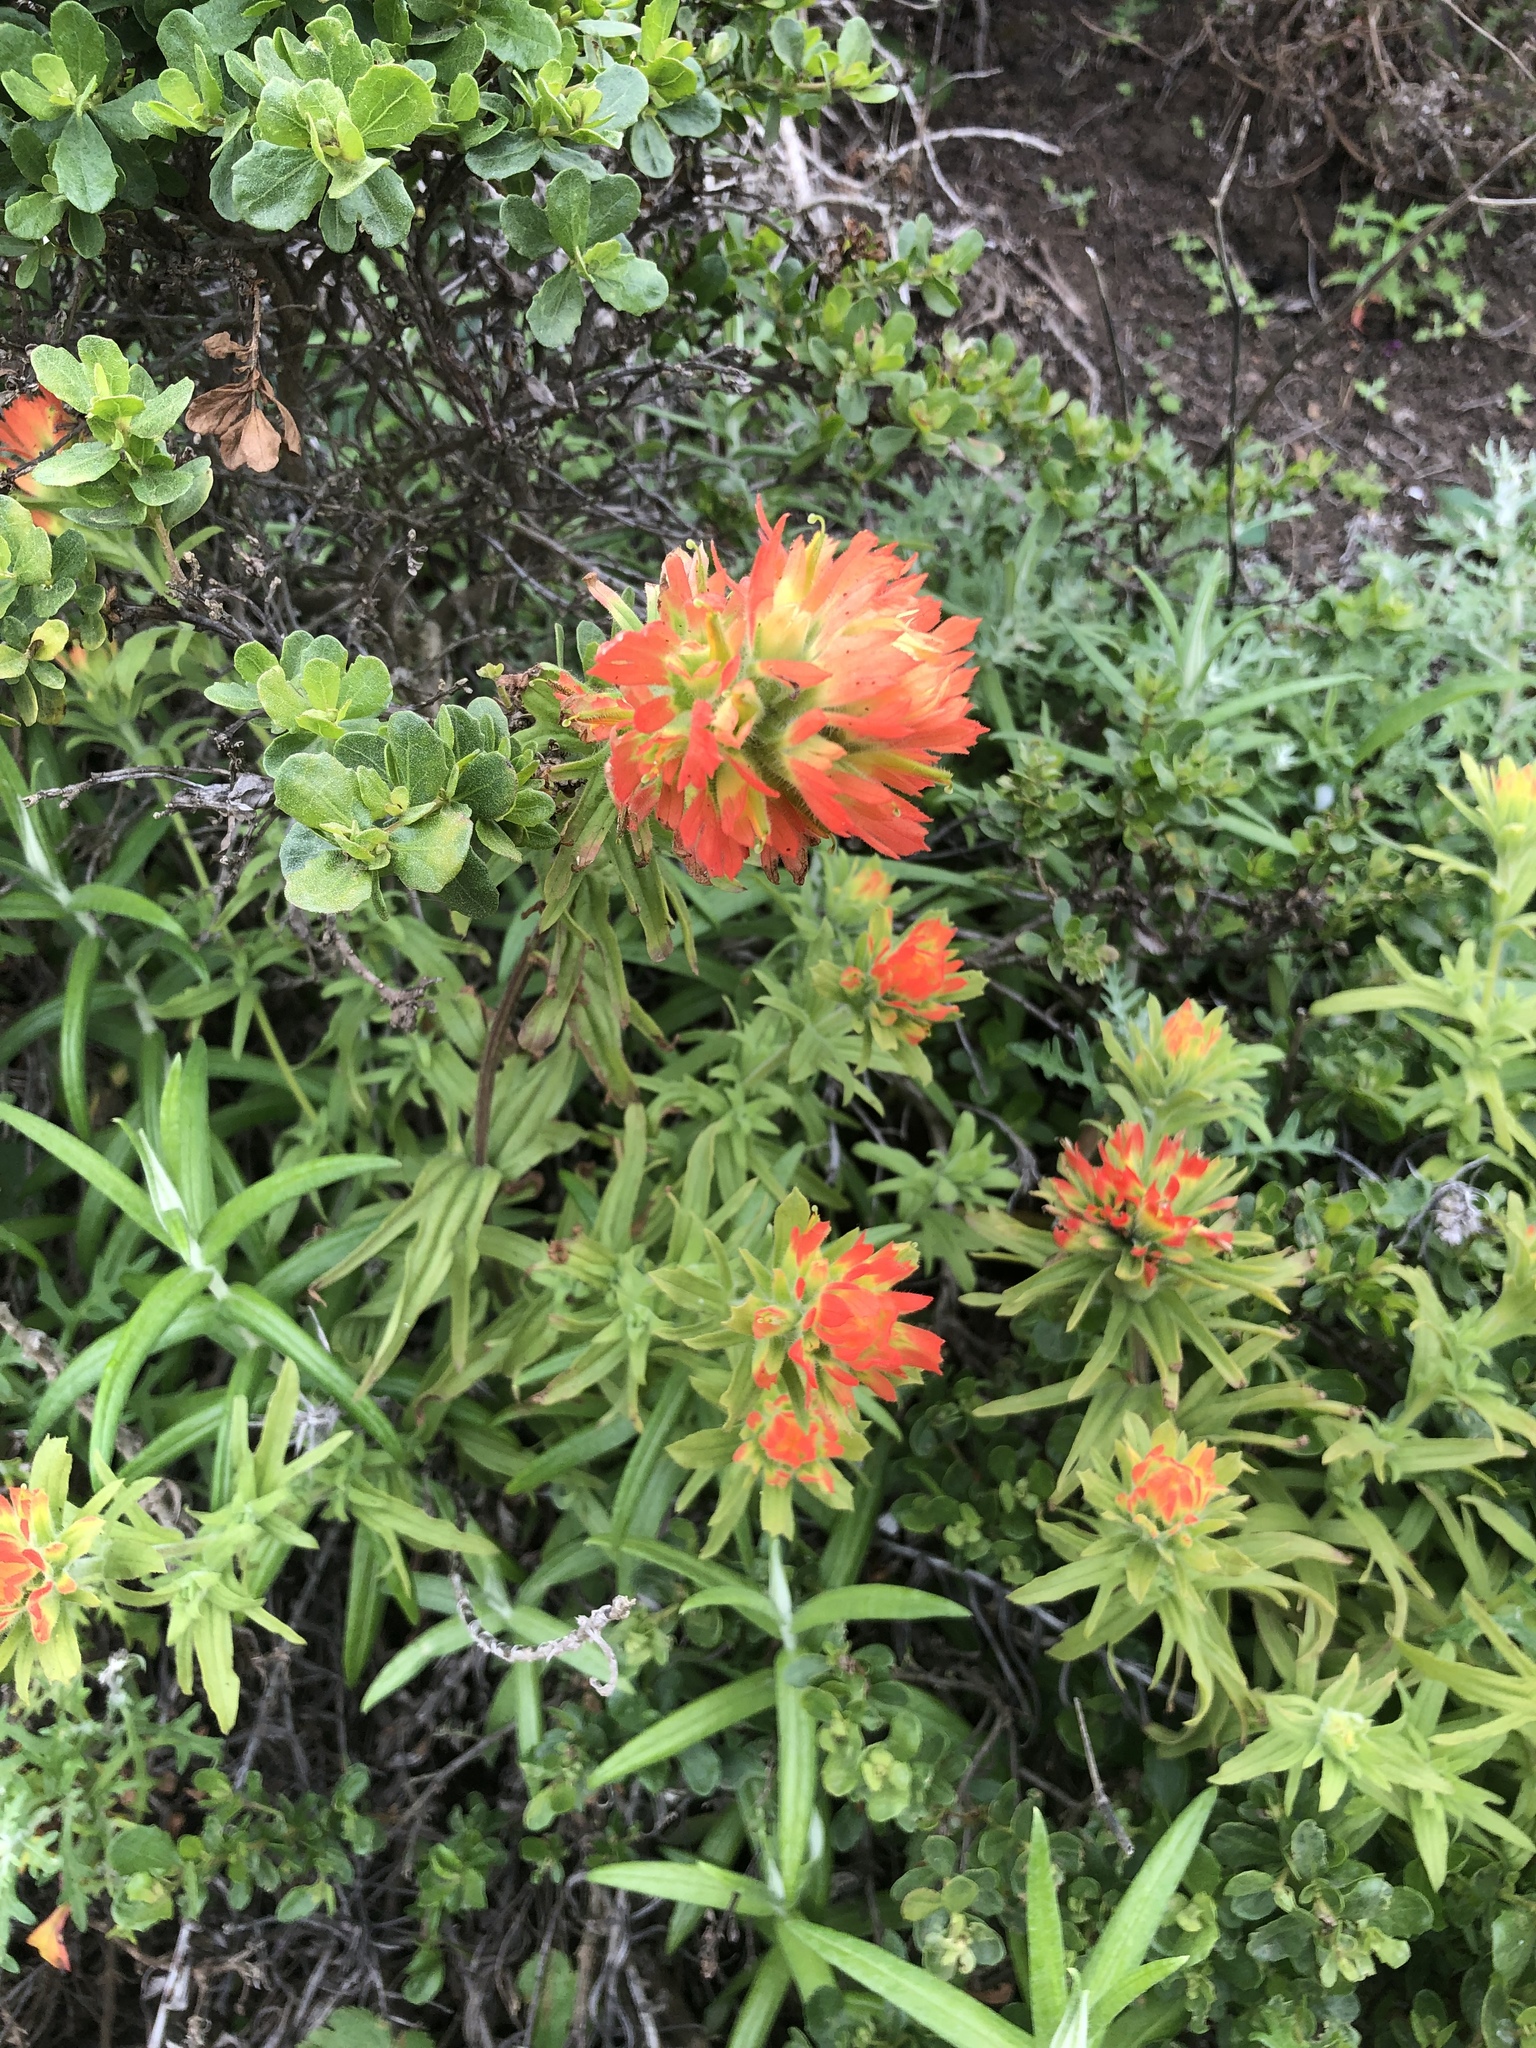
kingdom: Plantae
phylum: Tracheophyta
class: Magnoliopsida
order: Lamiales
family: Orobanchaceae
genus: Castilleja
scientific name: Castilleja affinis
